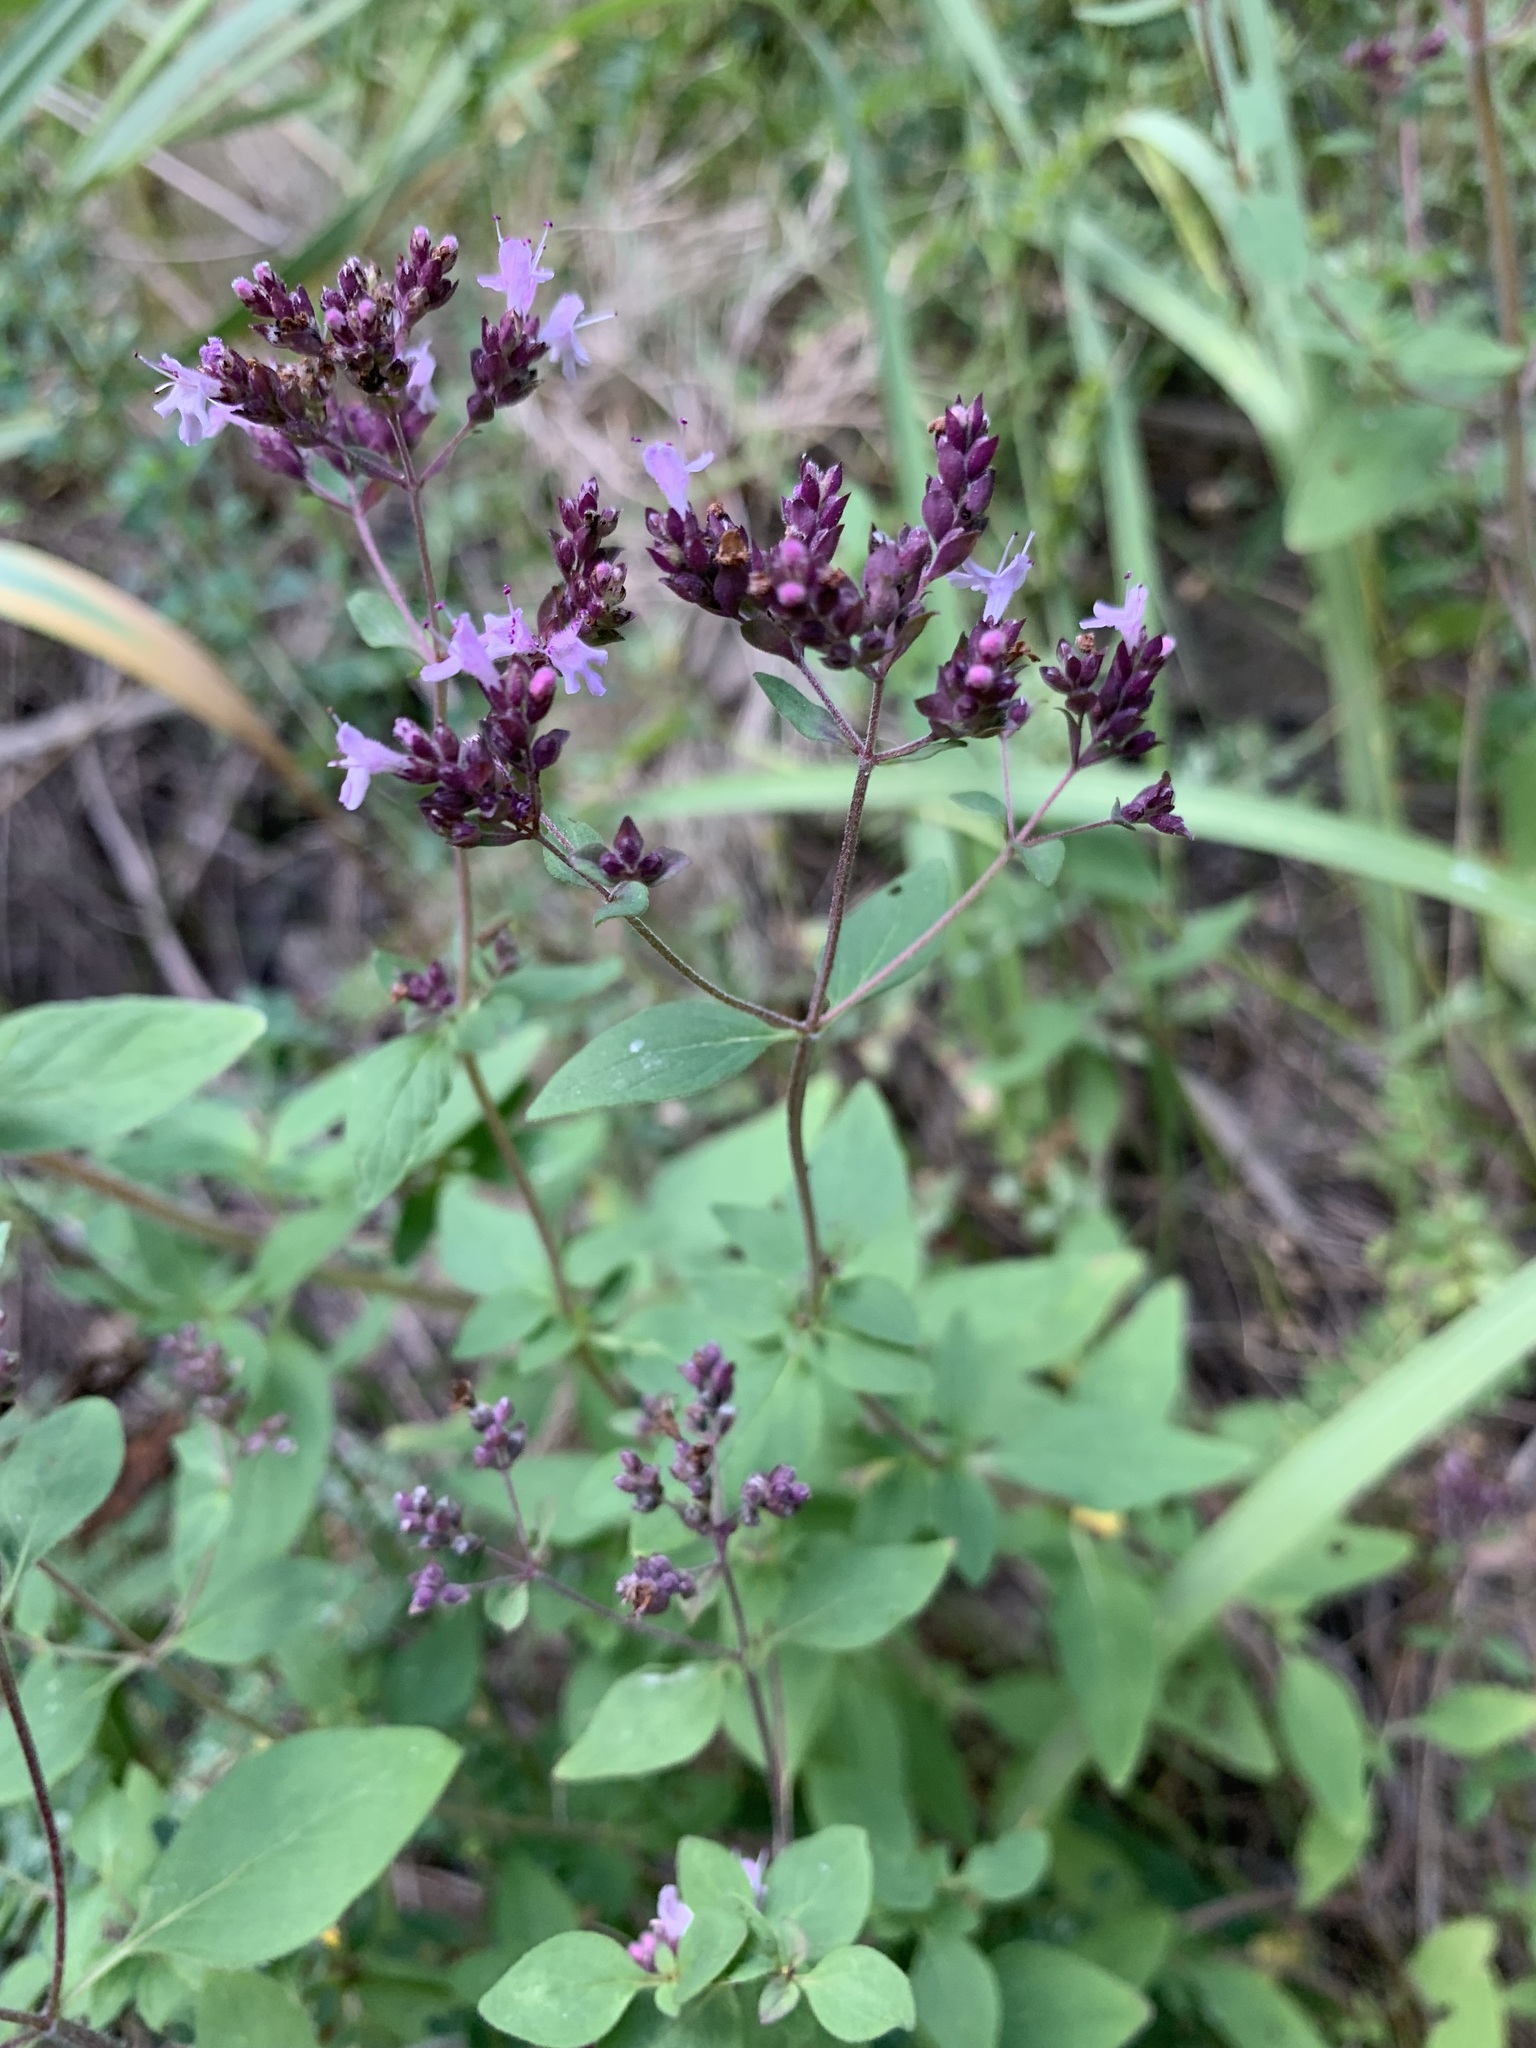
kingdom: Plantae
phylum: Tracheophyta
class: Magnoliopsida
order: Lamiales
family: Lamiaceae
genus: Origanum
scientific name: Origanum vulgare
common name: Wild marjoram
